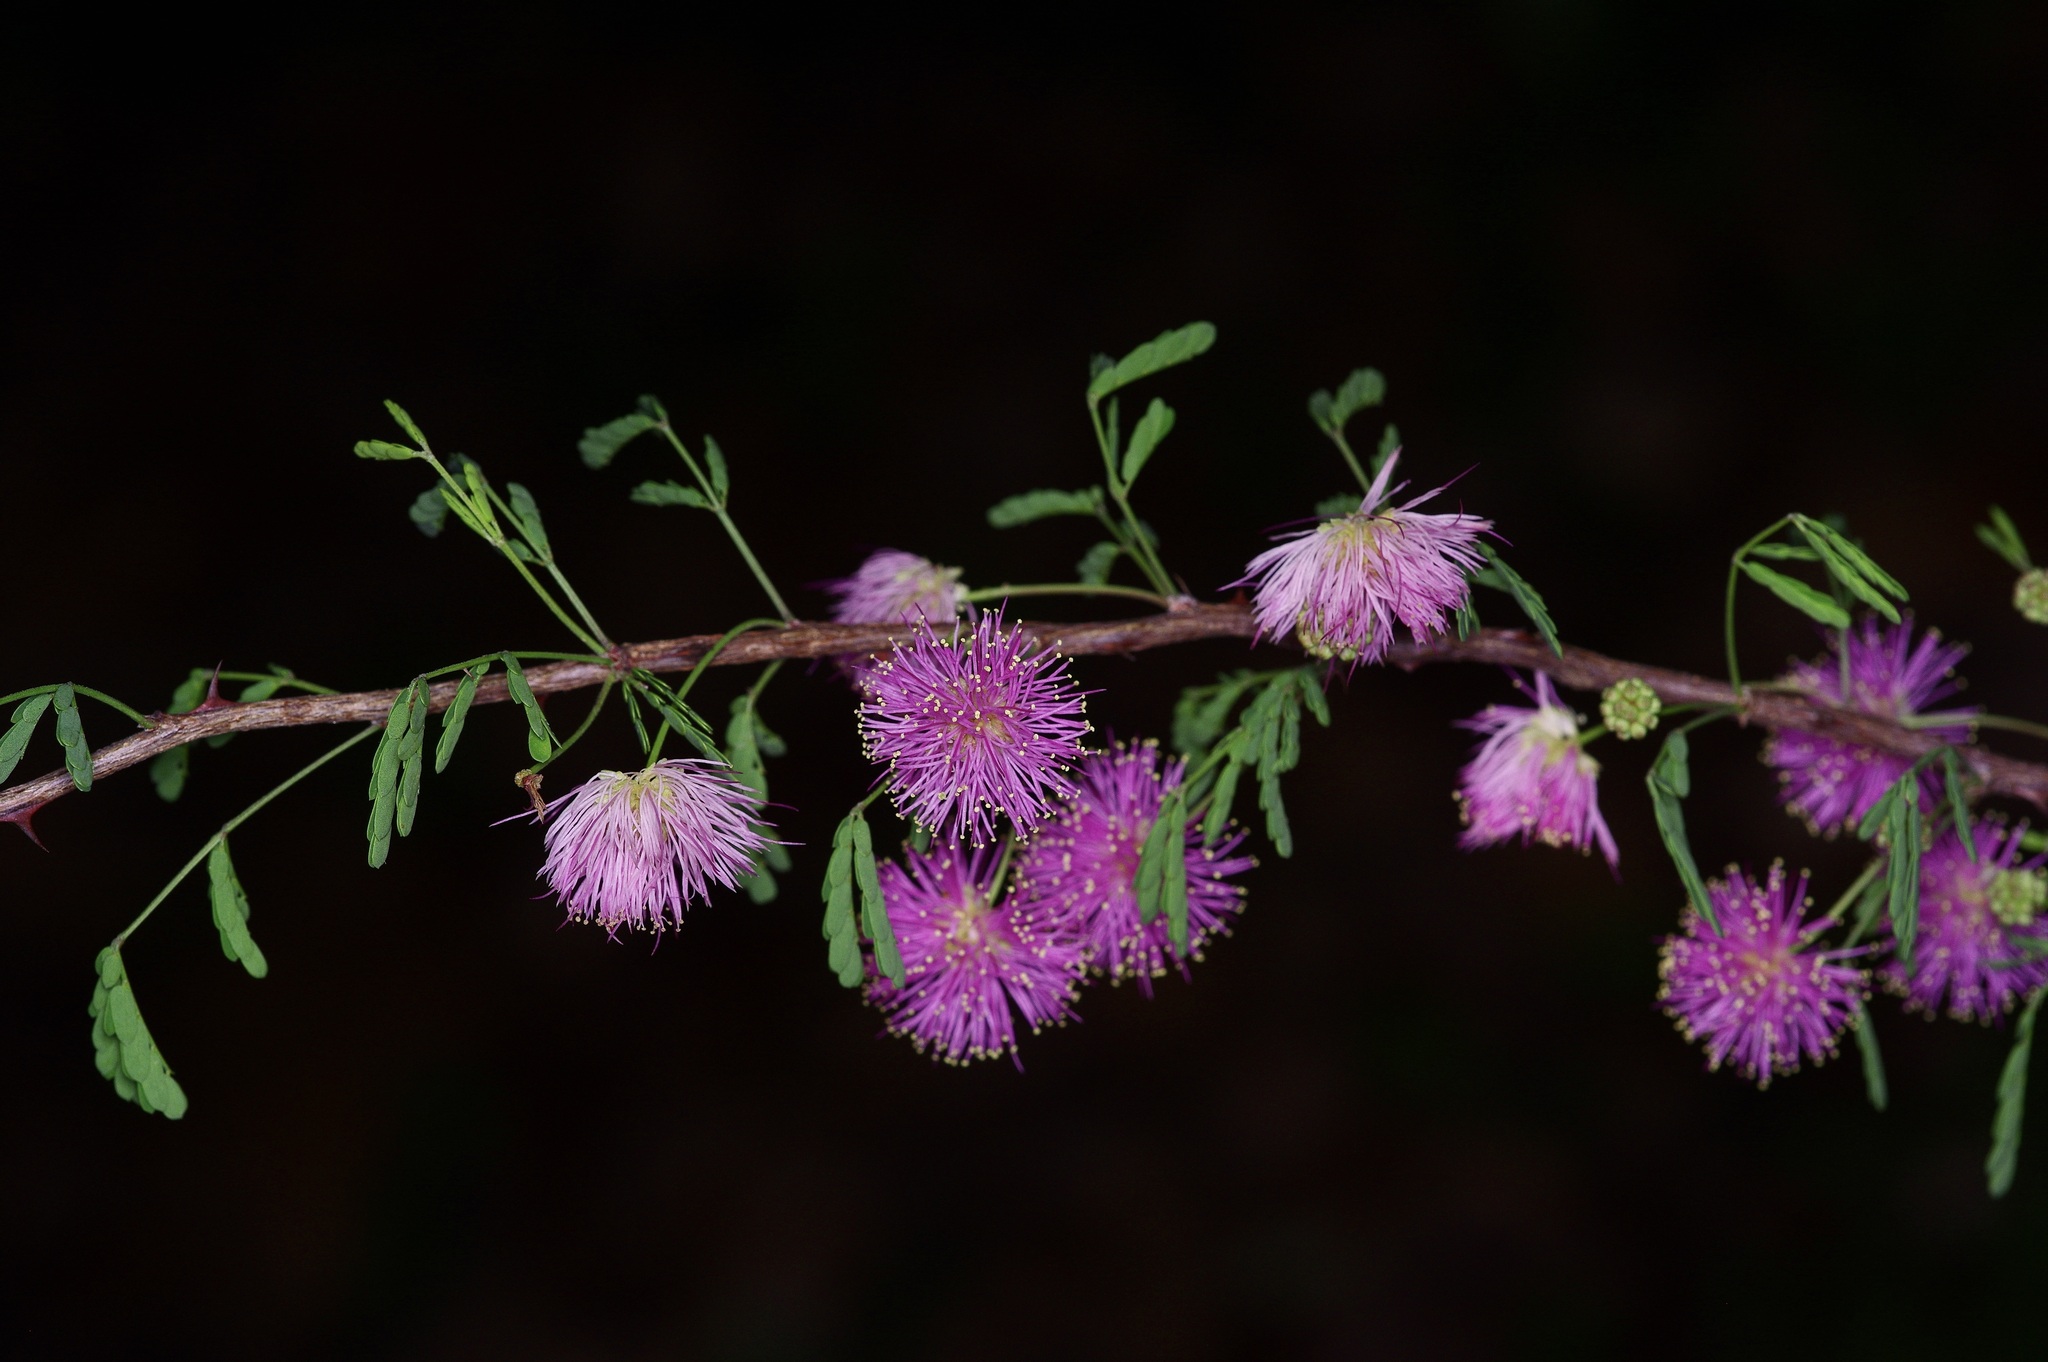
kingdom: Plantae
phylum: Tracheophyta
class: Magnoliopsida
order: Fabales
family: Fabaceae
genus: Mimosa
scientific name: Mimosa borealis
